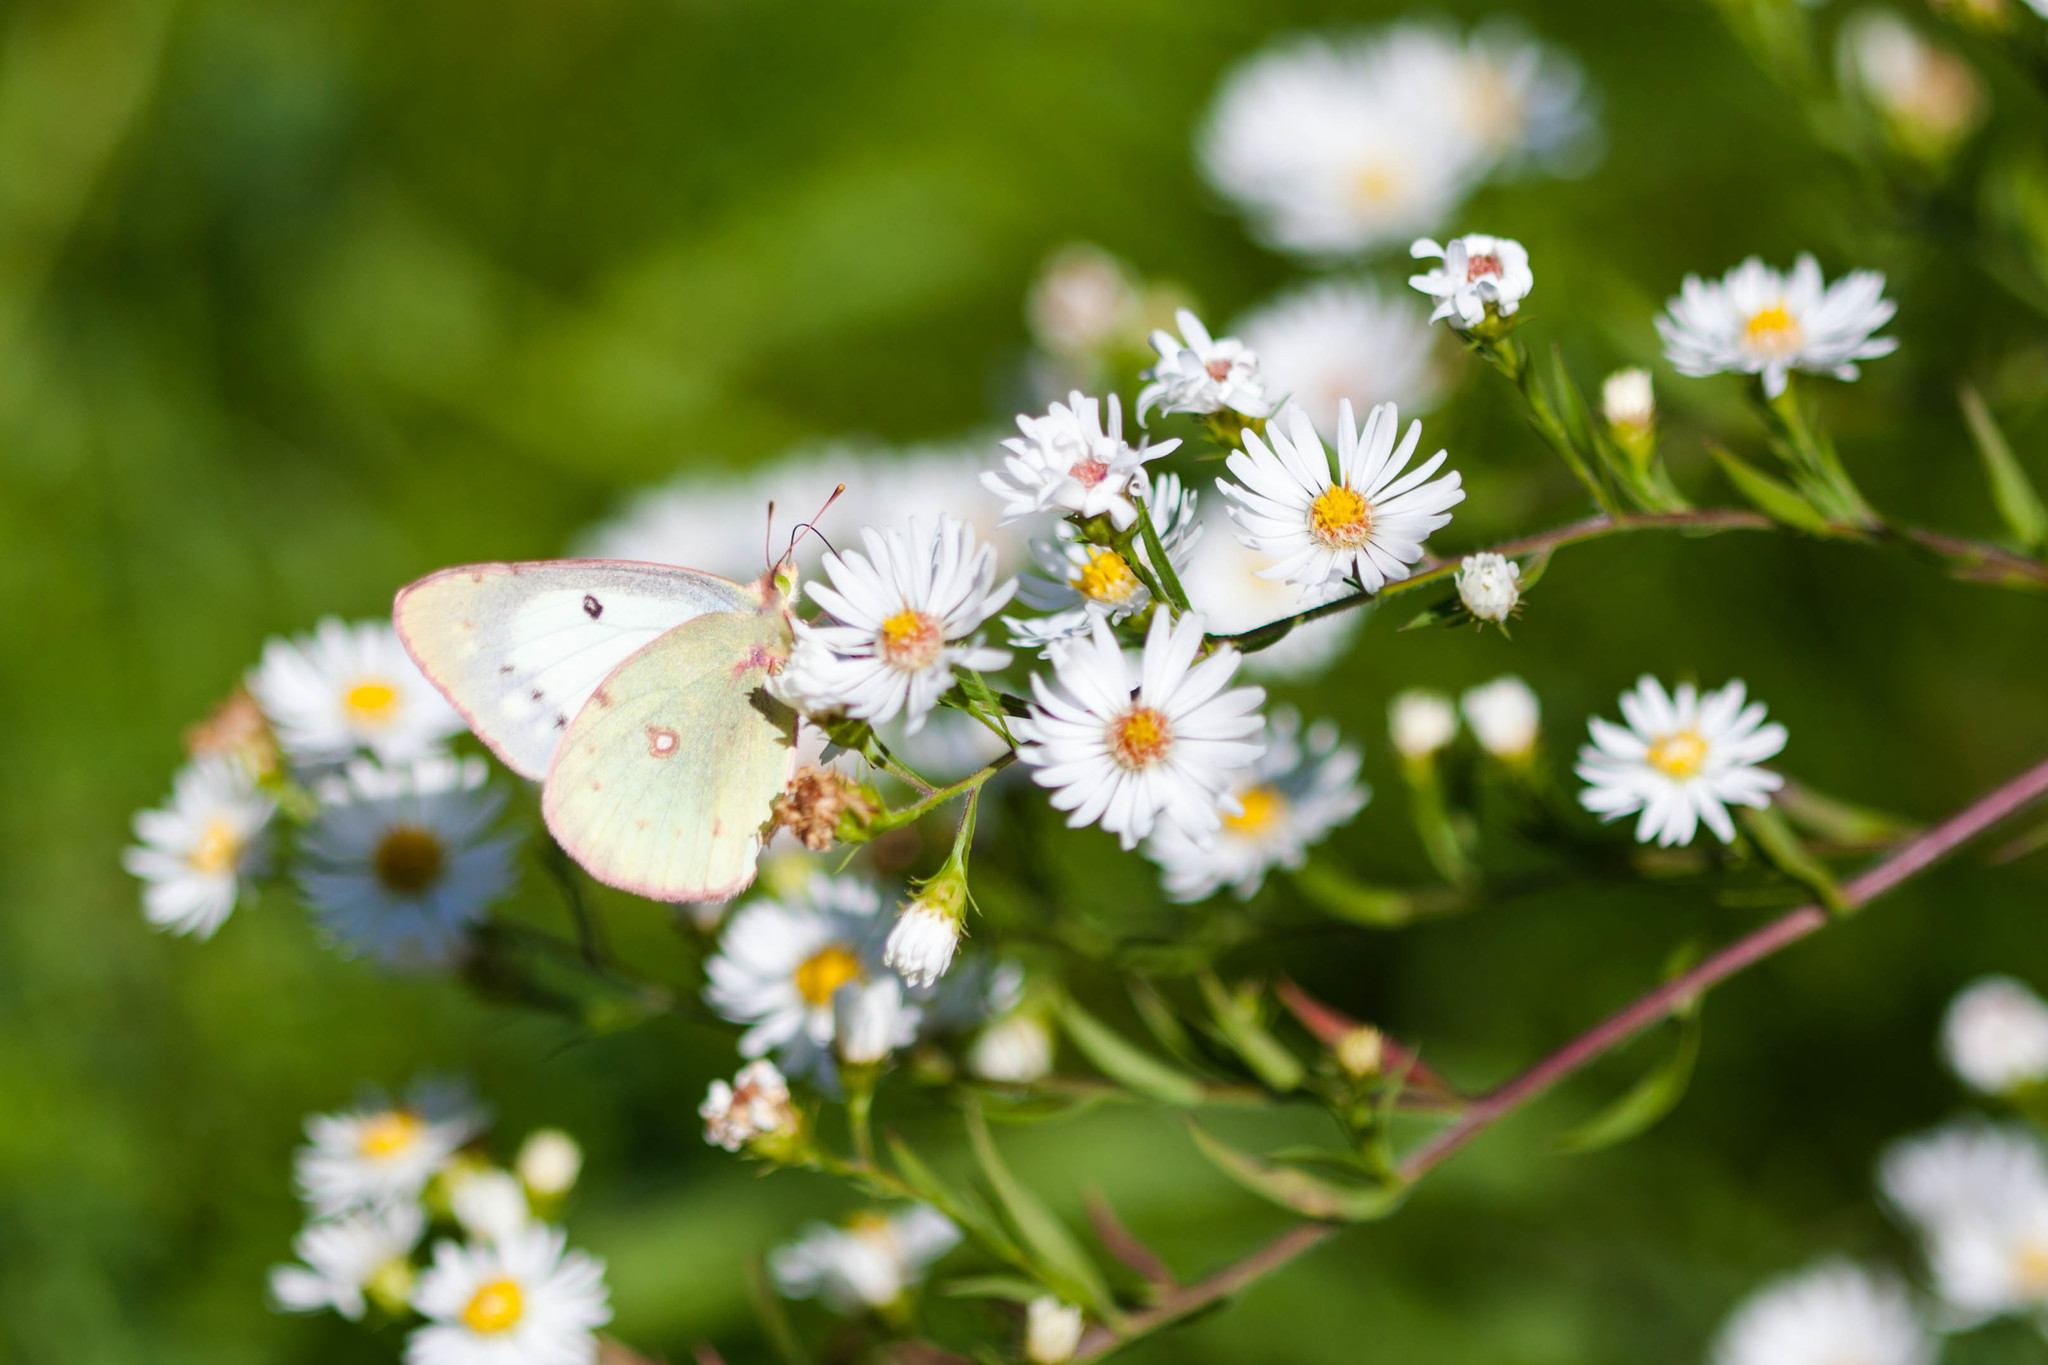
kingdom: Animalia
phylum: Arthropoda
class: Insecta
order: Lepidoptera
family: Pieridae
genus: Colias
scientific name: Colias
